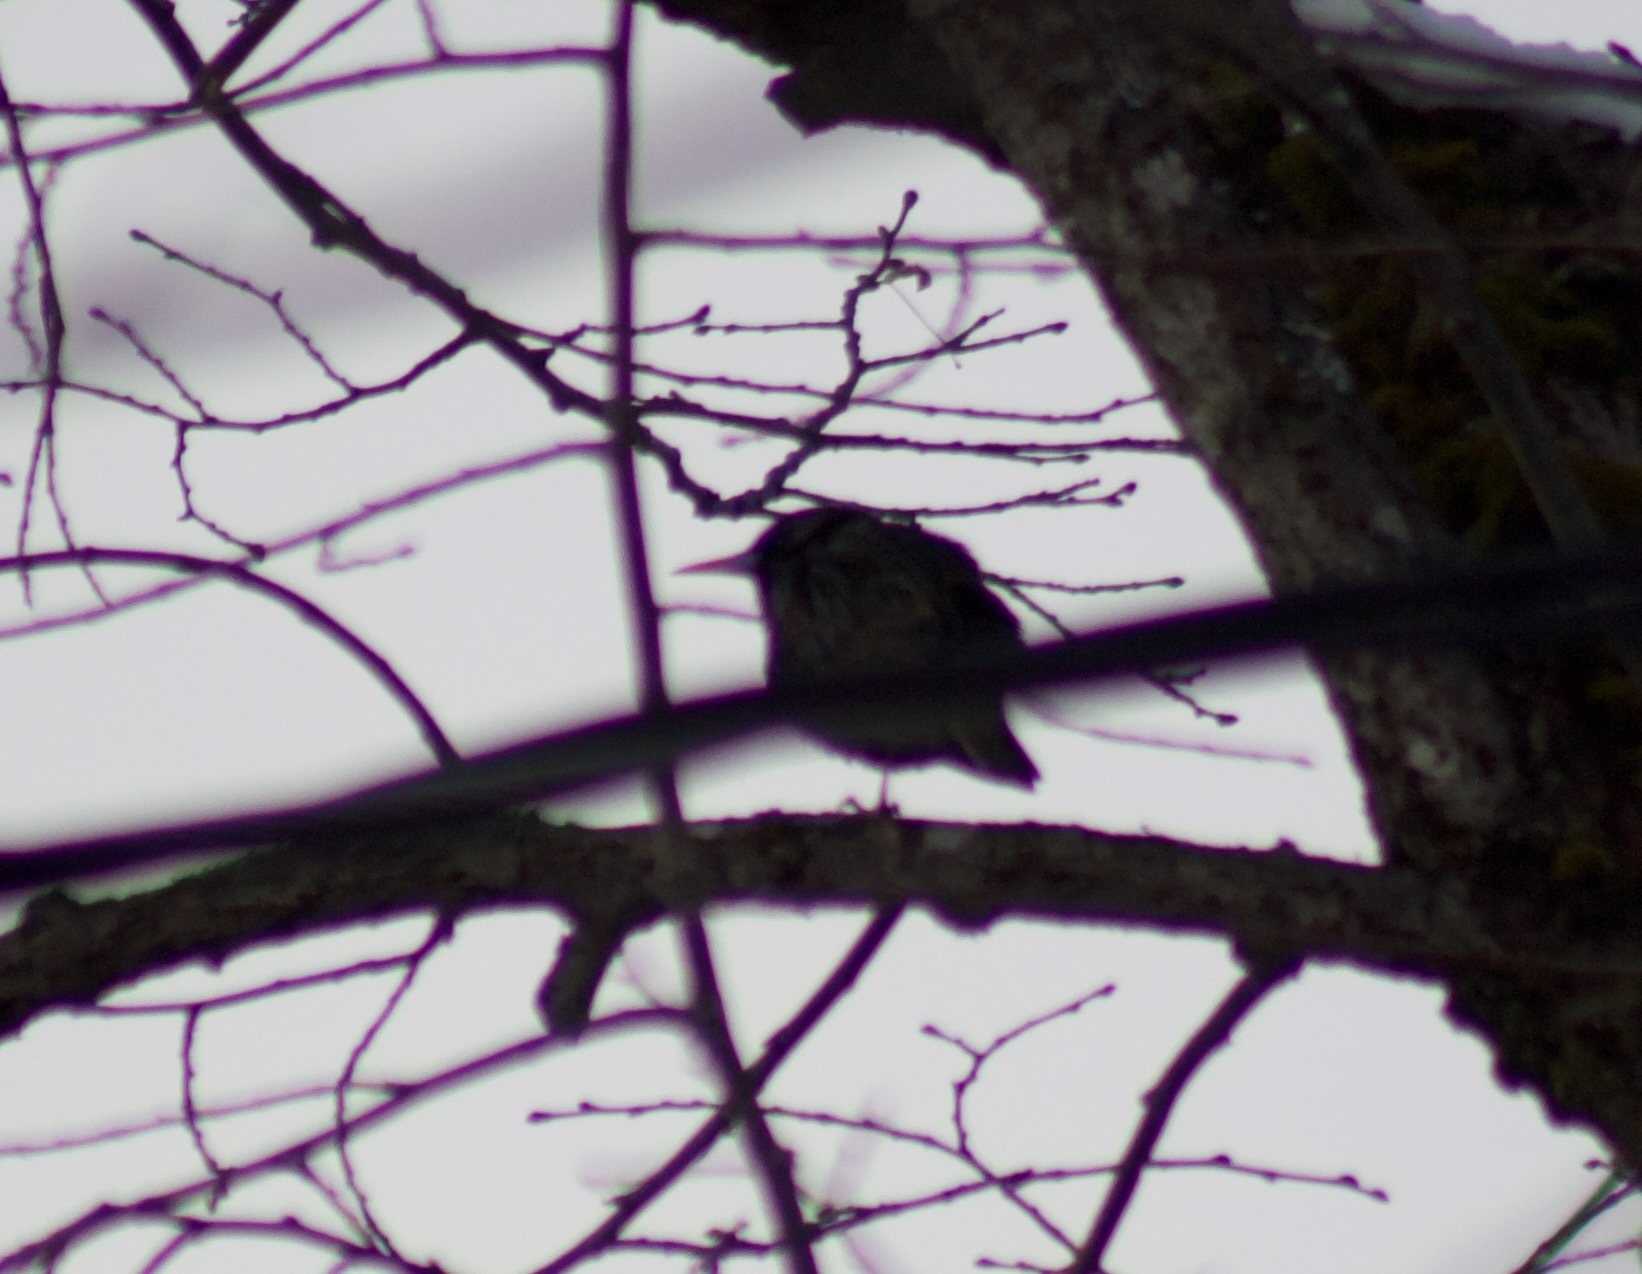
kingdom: Animalia
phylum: Chordata
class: Aves
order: Passeriformes
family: Sturnidae
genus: Sturnus
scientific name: Sturnus vulgaris
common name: Common starling
